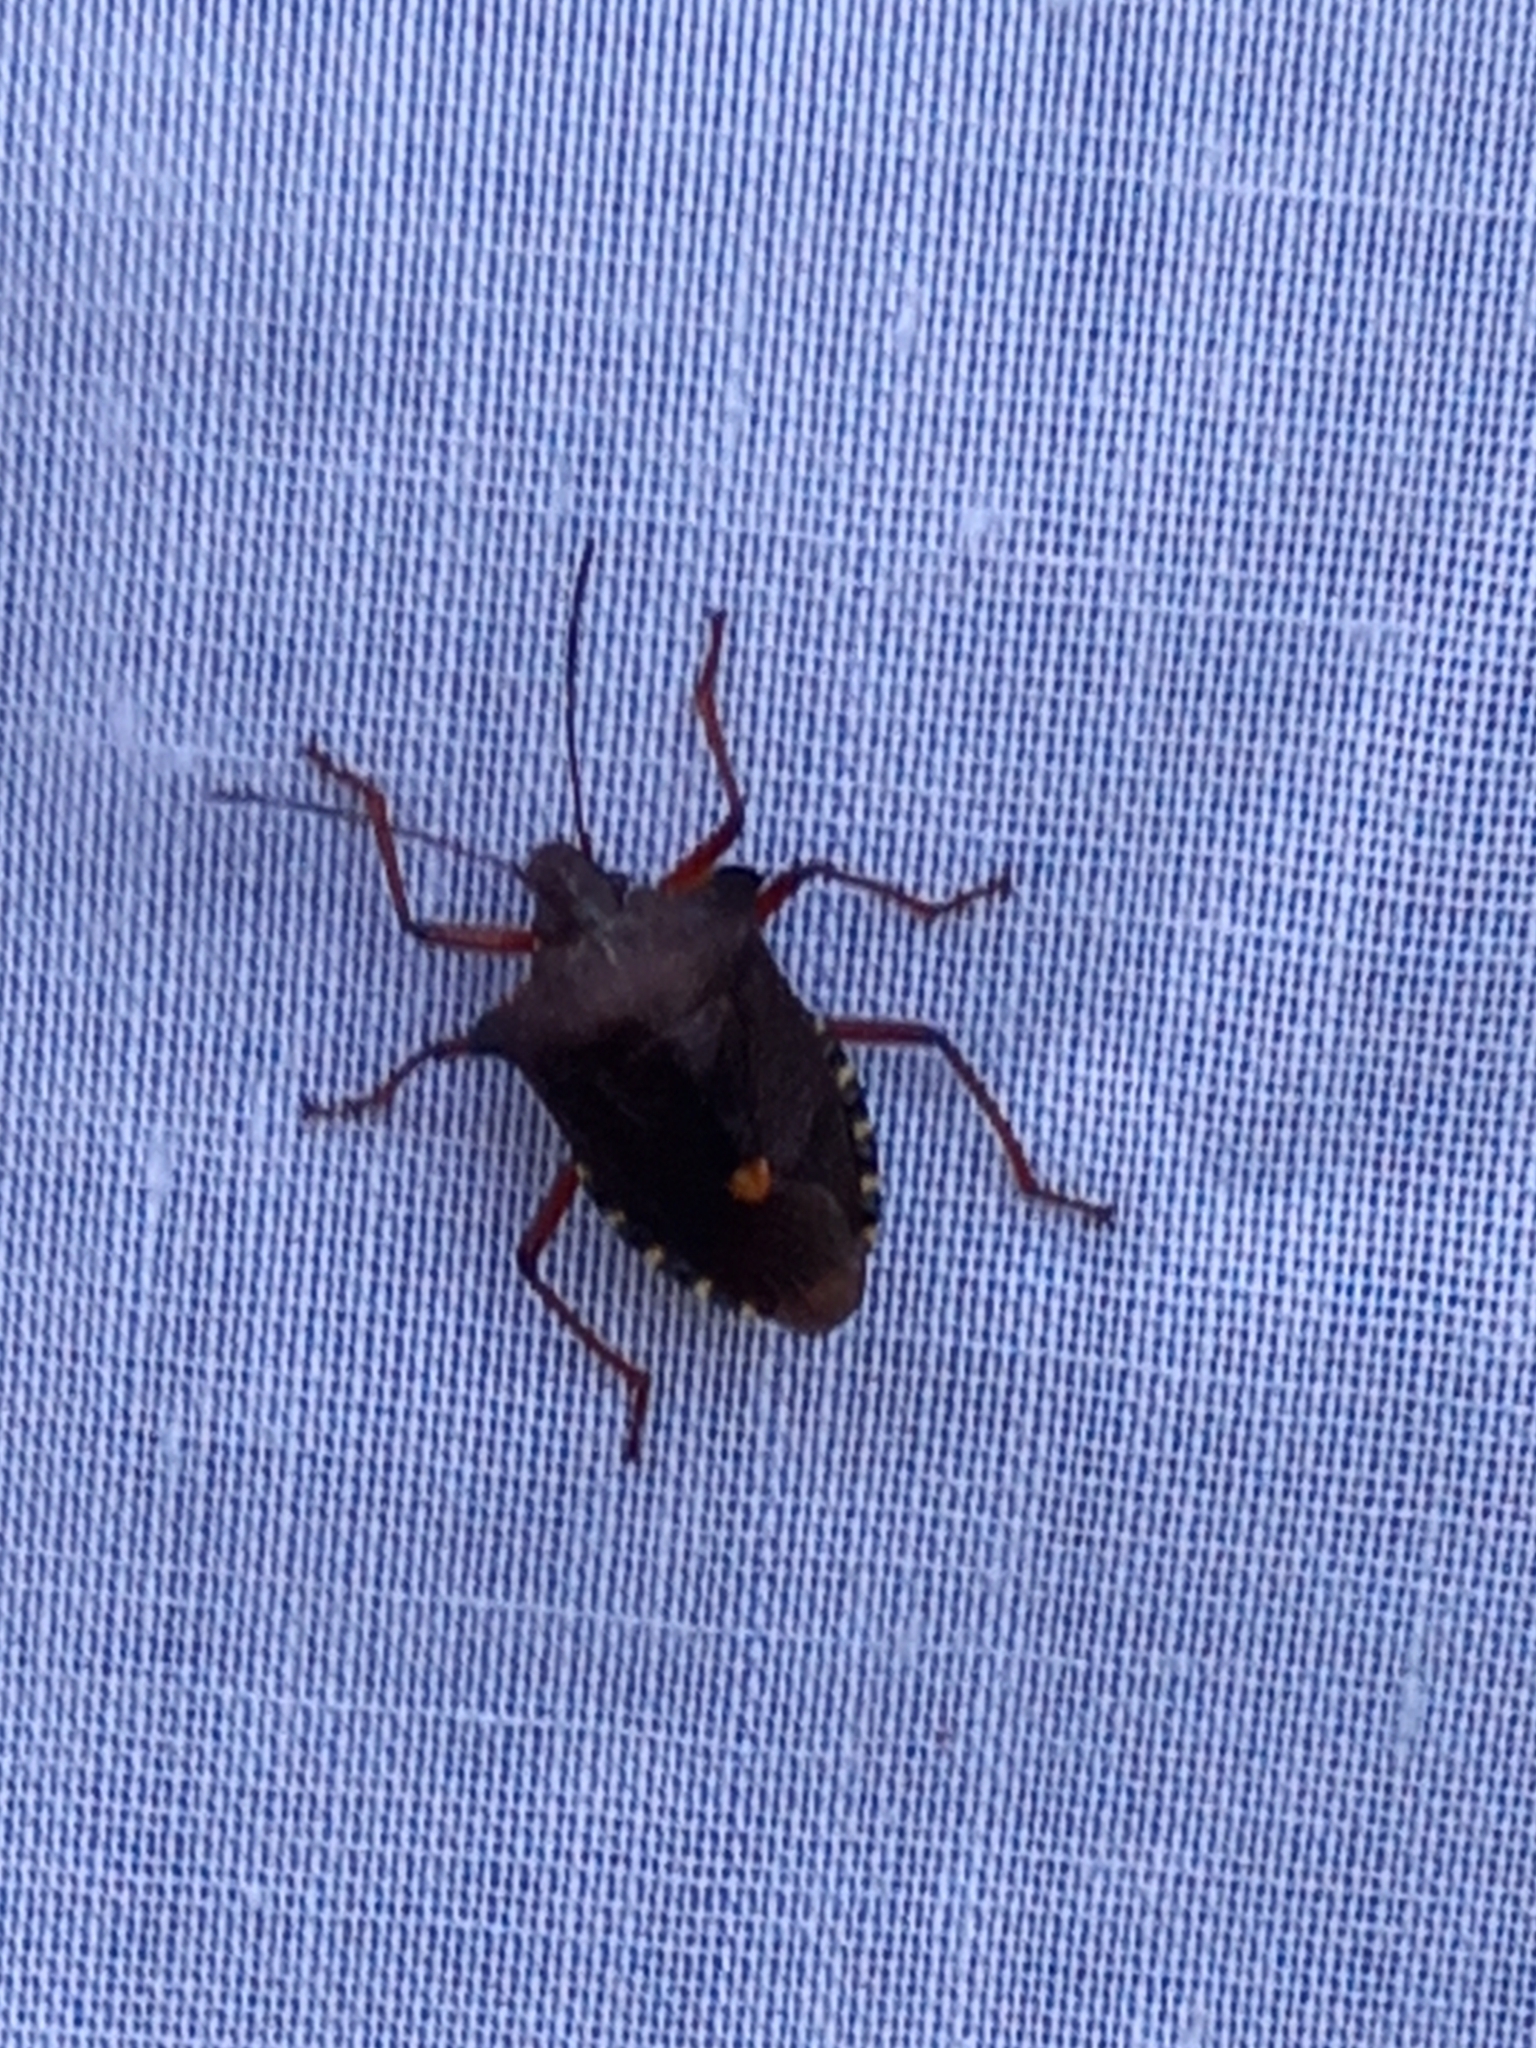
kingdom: Animalia
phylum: Arthropoda
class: Insecta
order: Hemiptera
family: Pentatomidae
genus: Pentatoma
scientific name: Pentatoma rufipes
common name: Forest bug
